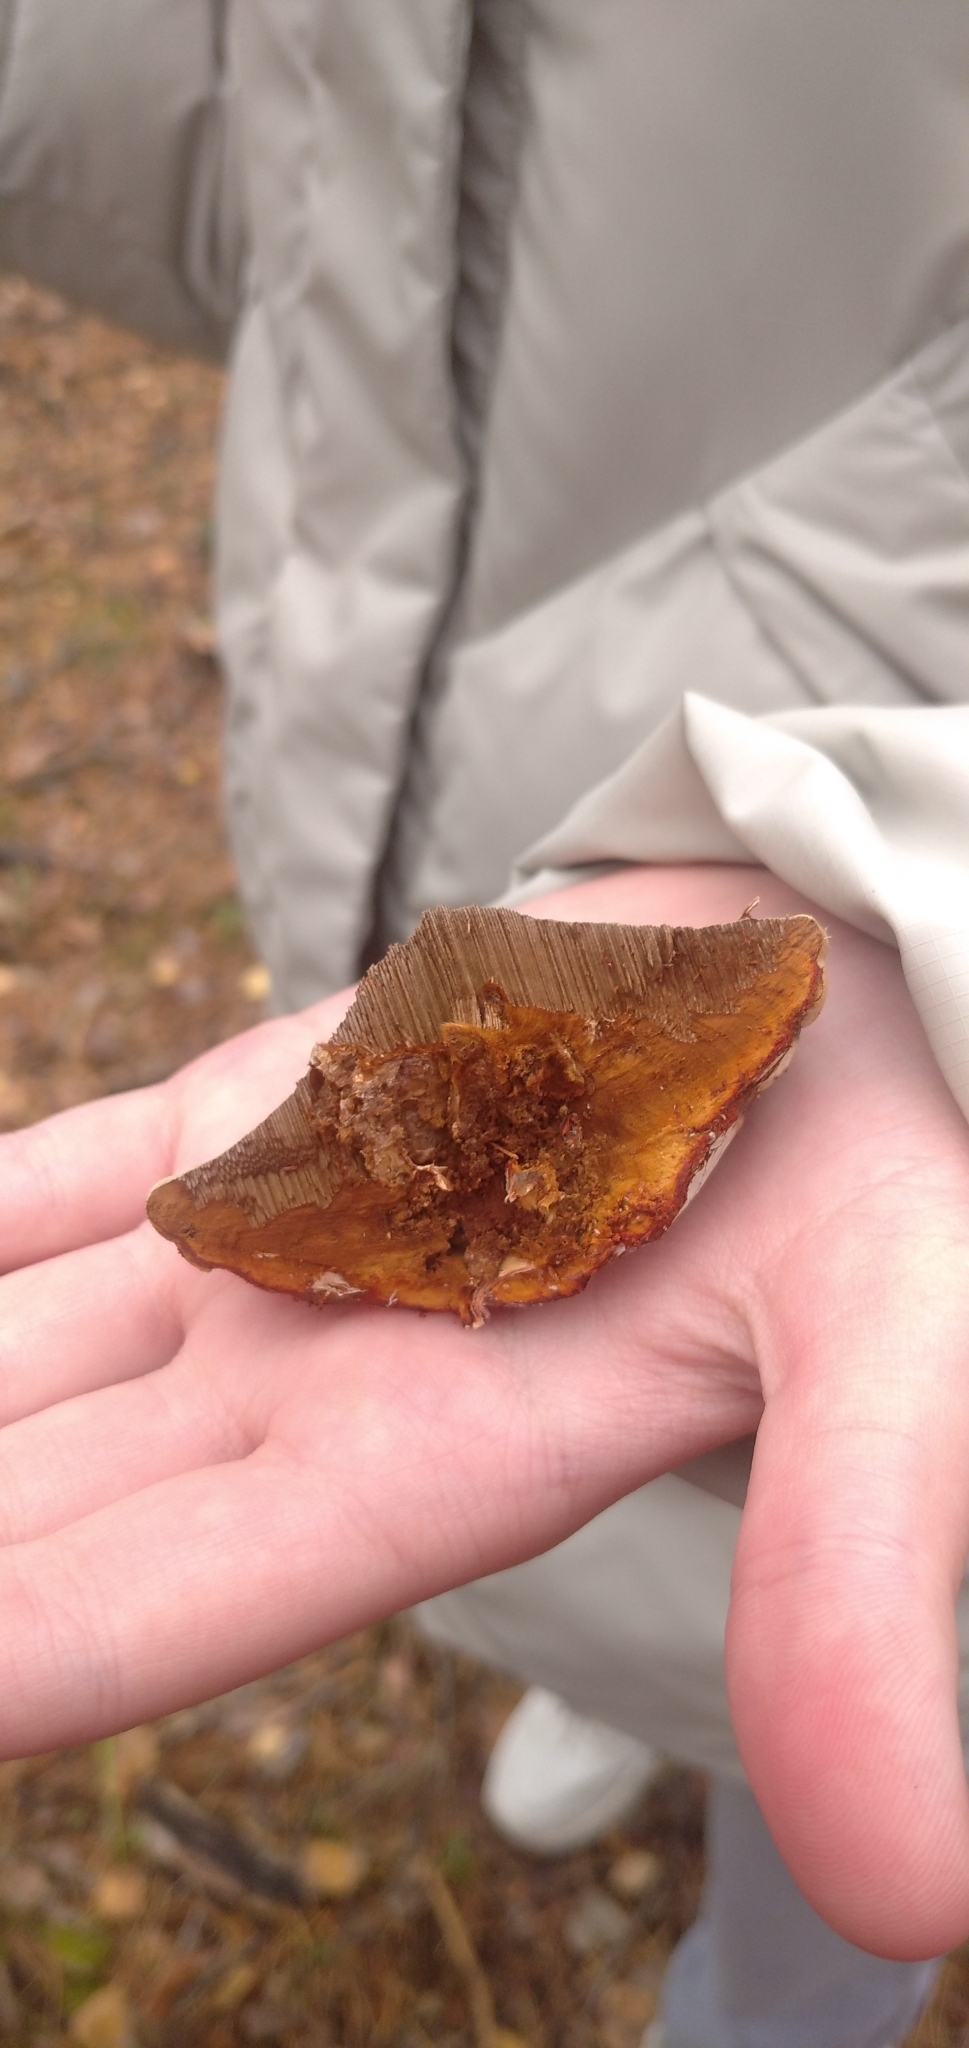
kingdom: Fungi
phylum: Basidiomycota
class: Agaricomycetes
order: Polyporales
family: Polyporaceae
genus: Fomes
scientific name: Fomes fomentarius
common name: Hoof fungus
